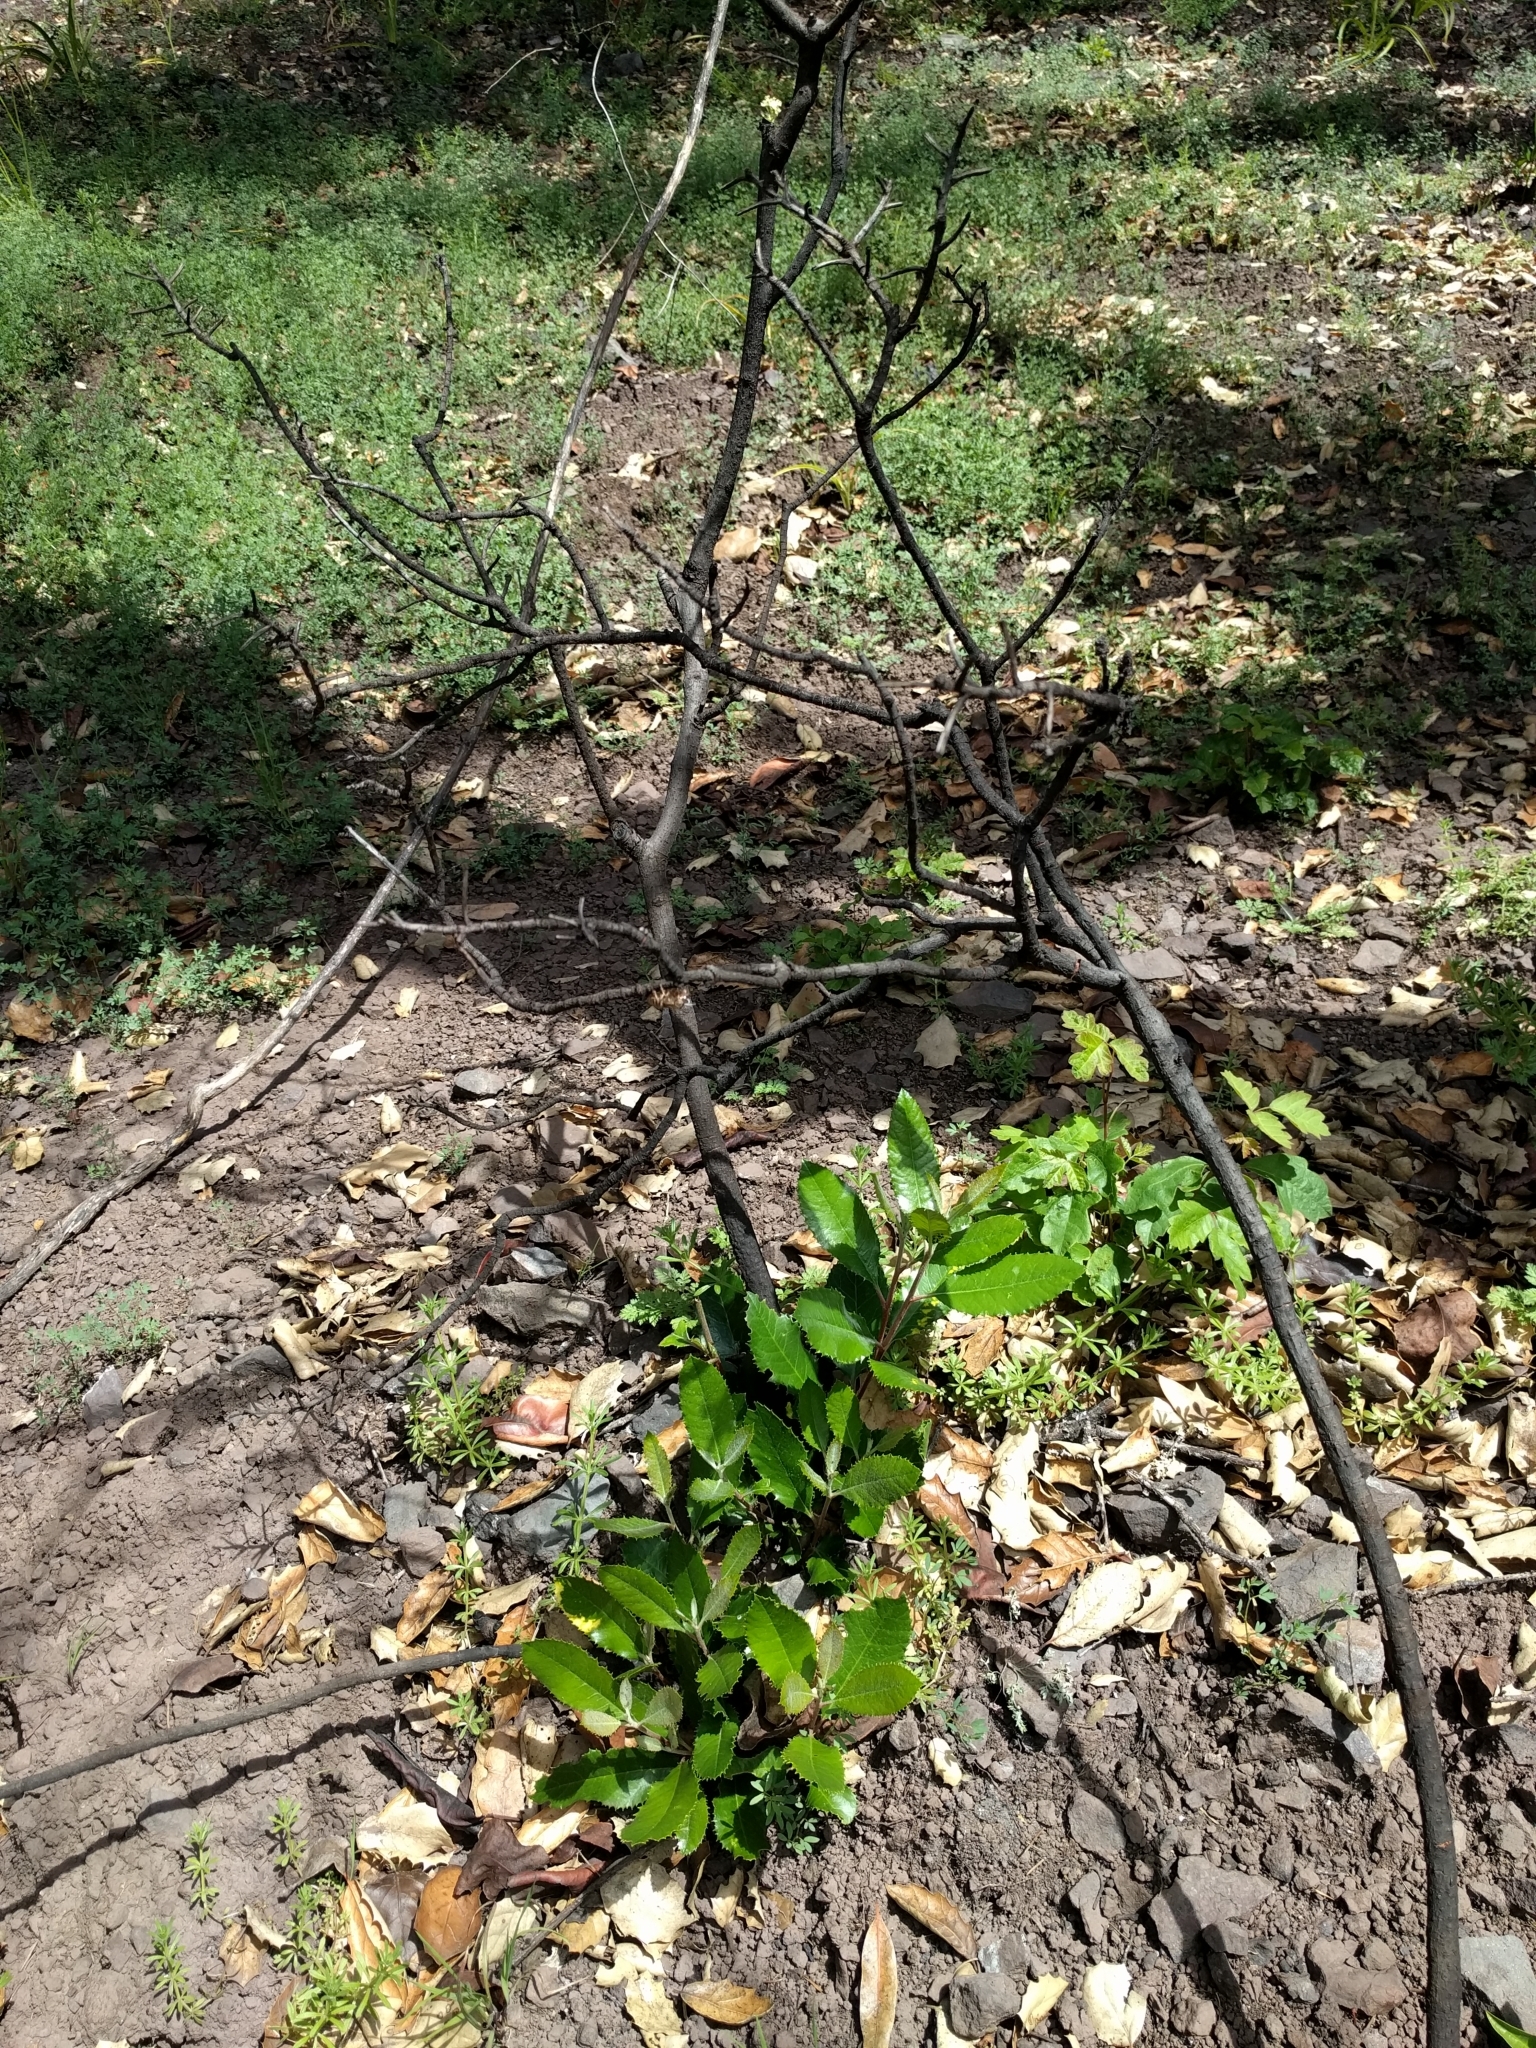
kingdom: Plantae
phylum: Tracheophyta
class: Magnoliopsida
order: Rosales
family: Rosaceae
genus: Heteromeles
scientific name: Heteromeles arbutifolia
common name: California-holly
